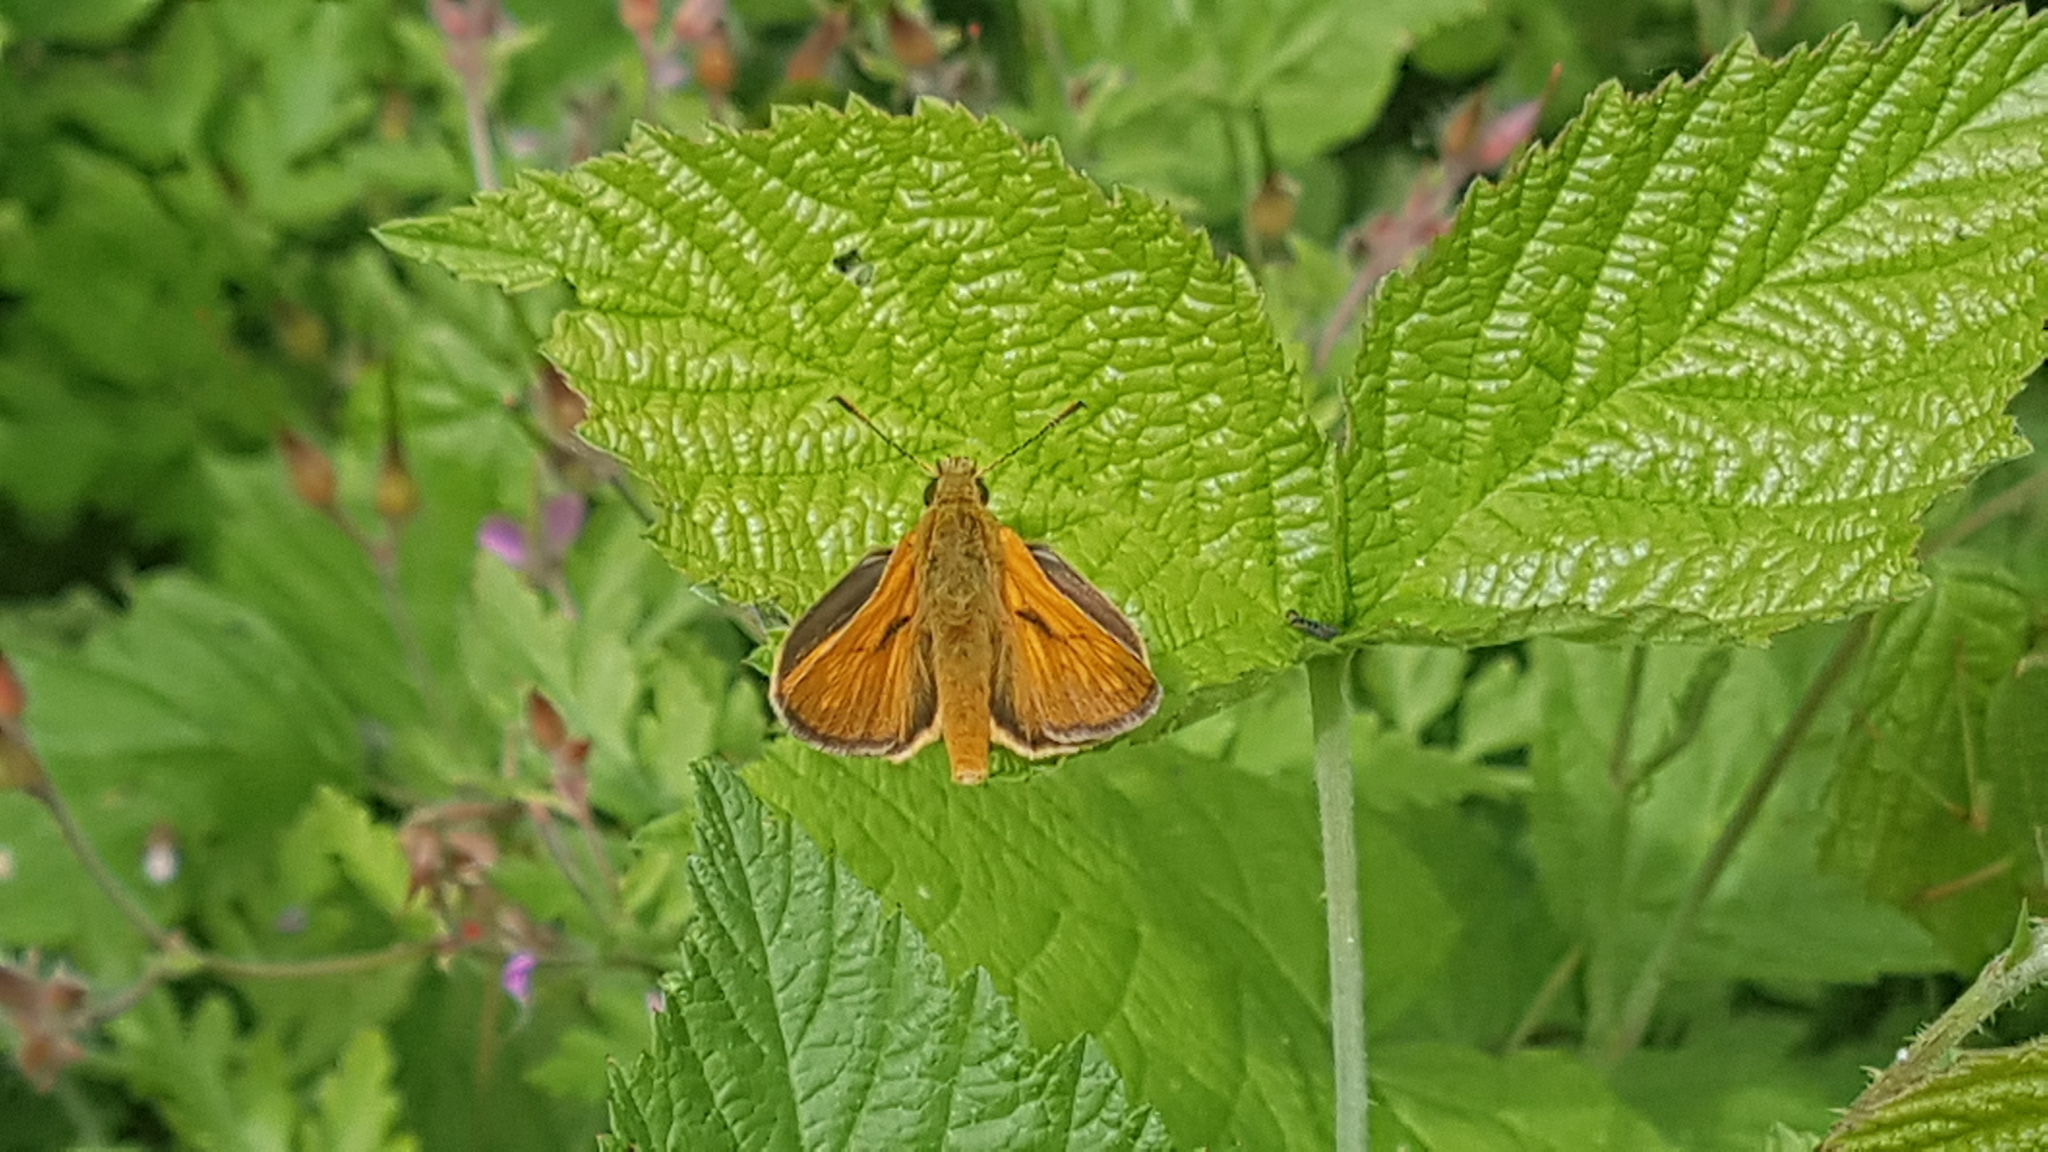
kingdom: Animalia
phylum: Arthropoda
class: Insecta
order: Lepidoptera
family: Hesperiidae
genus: Ochlodes
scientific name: Ochlodes venata
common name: Large skipper
